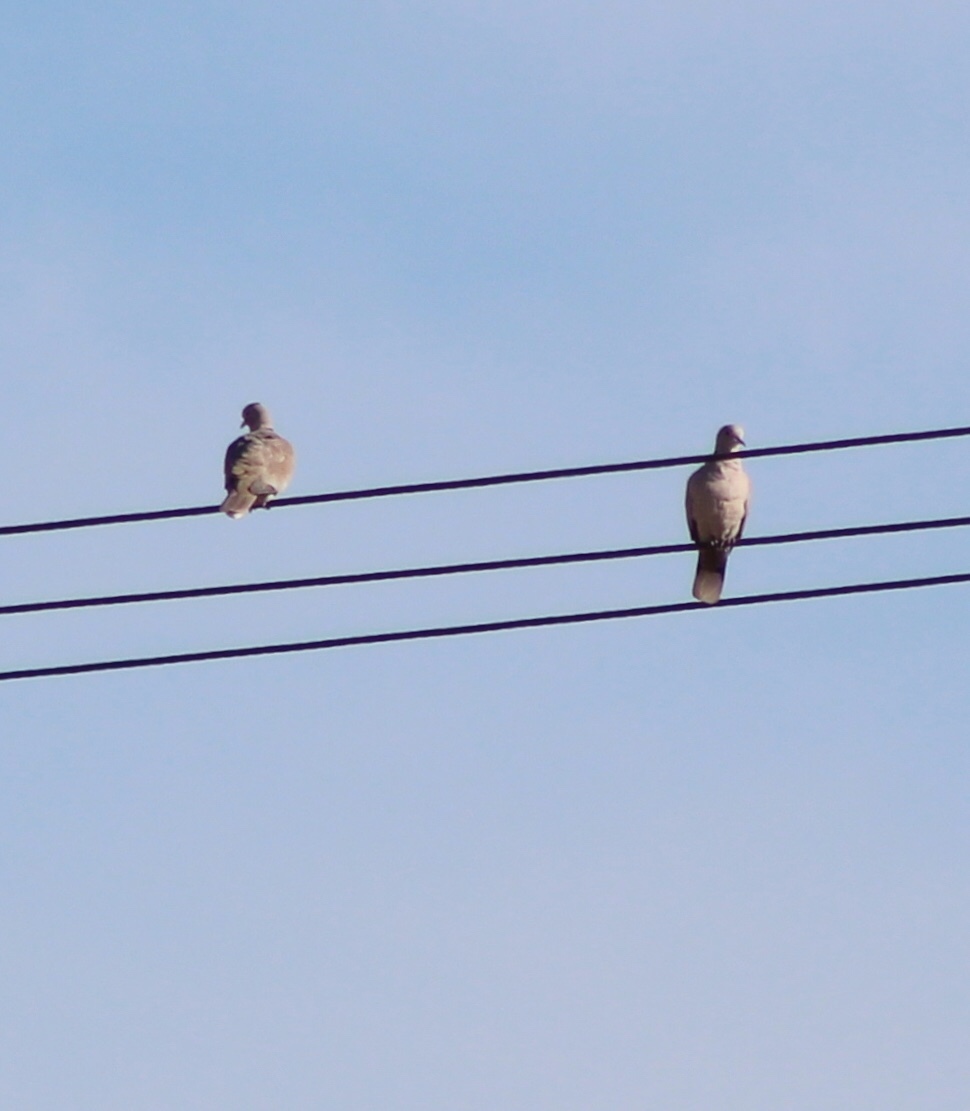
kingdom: Animalia
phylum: Chordata
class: Aves
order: Columbiformes
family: Columbidae
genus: Streptopelia
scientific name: Streptopelia decaocto
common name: Eurasian collared dove
